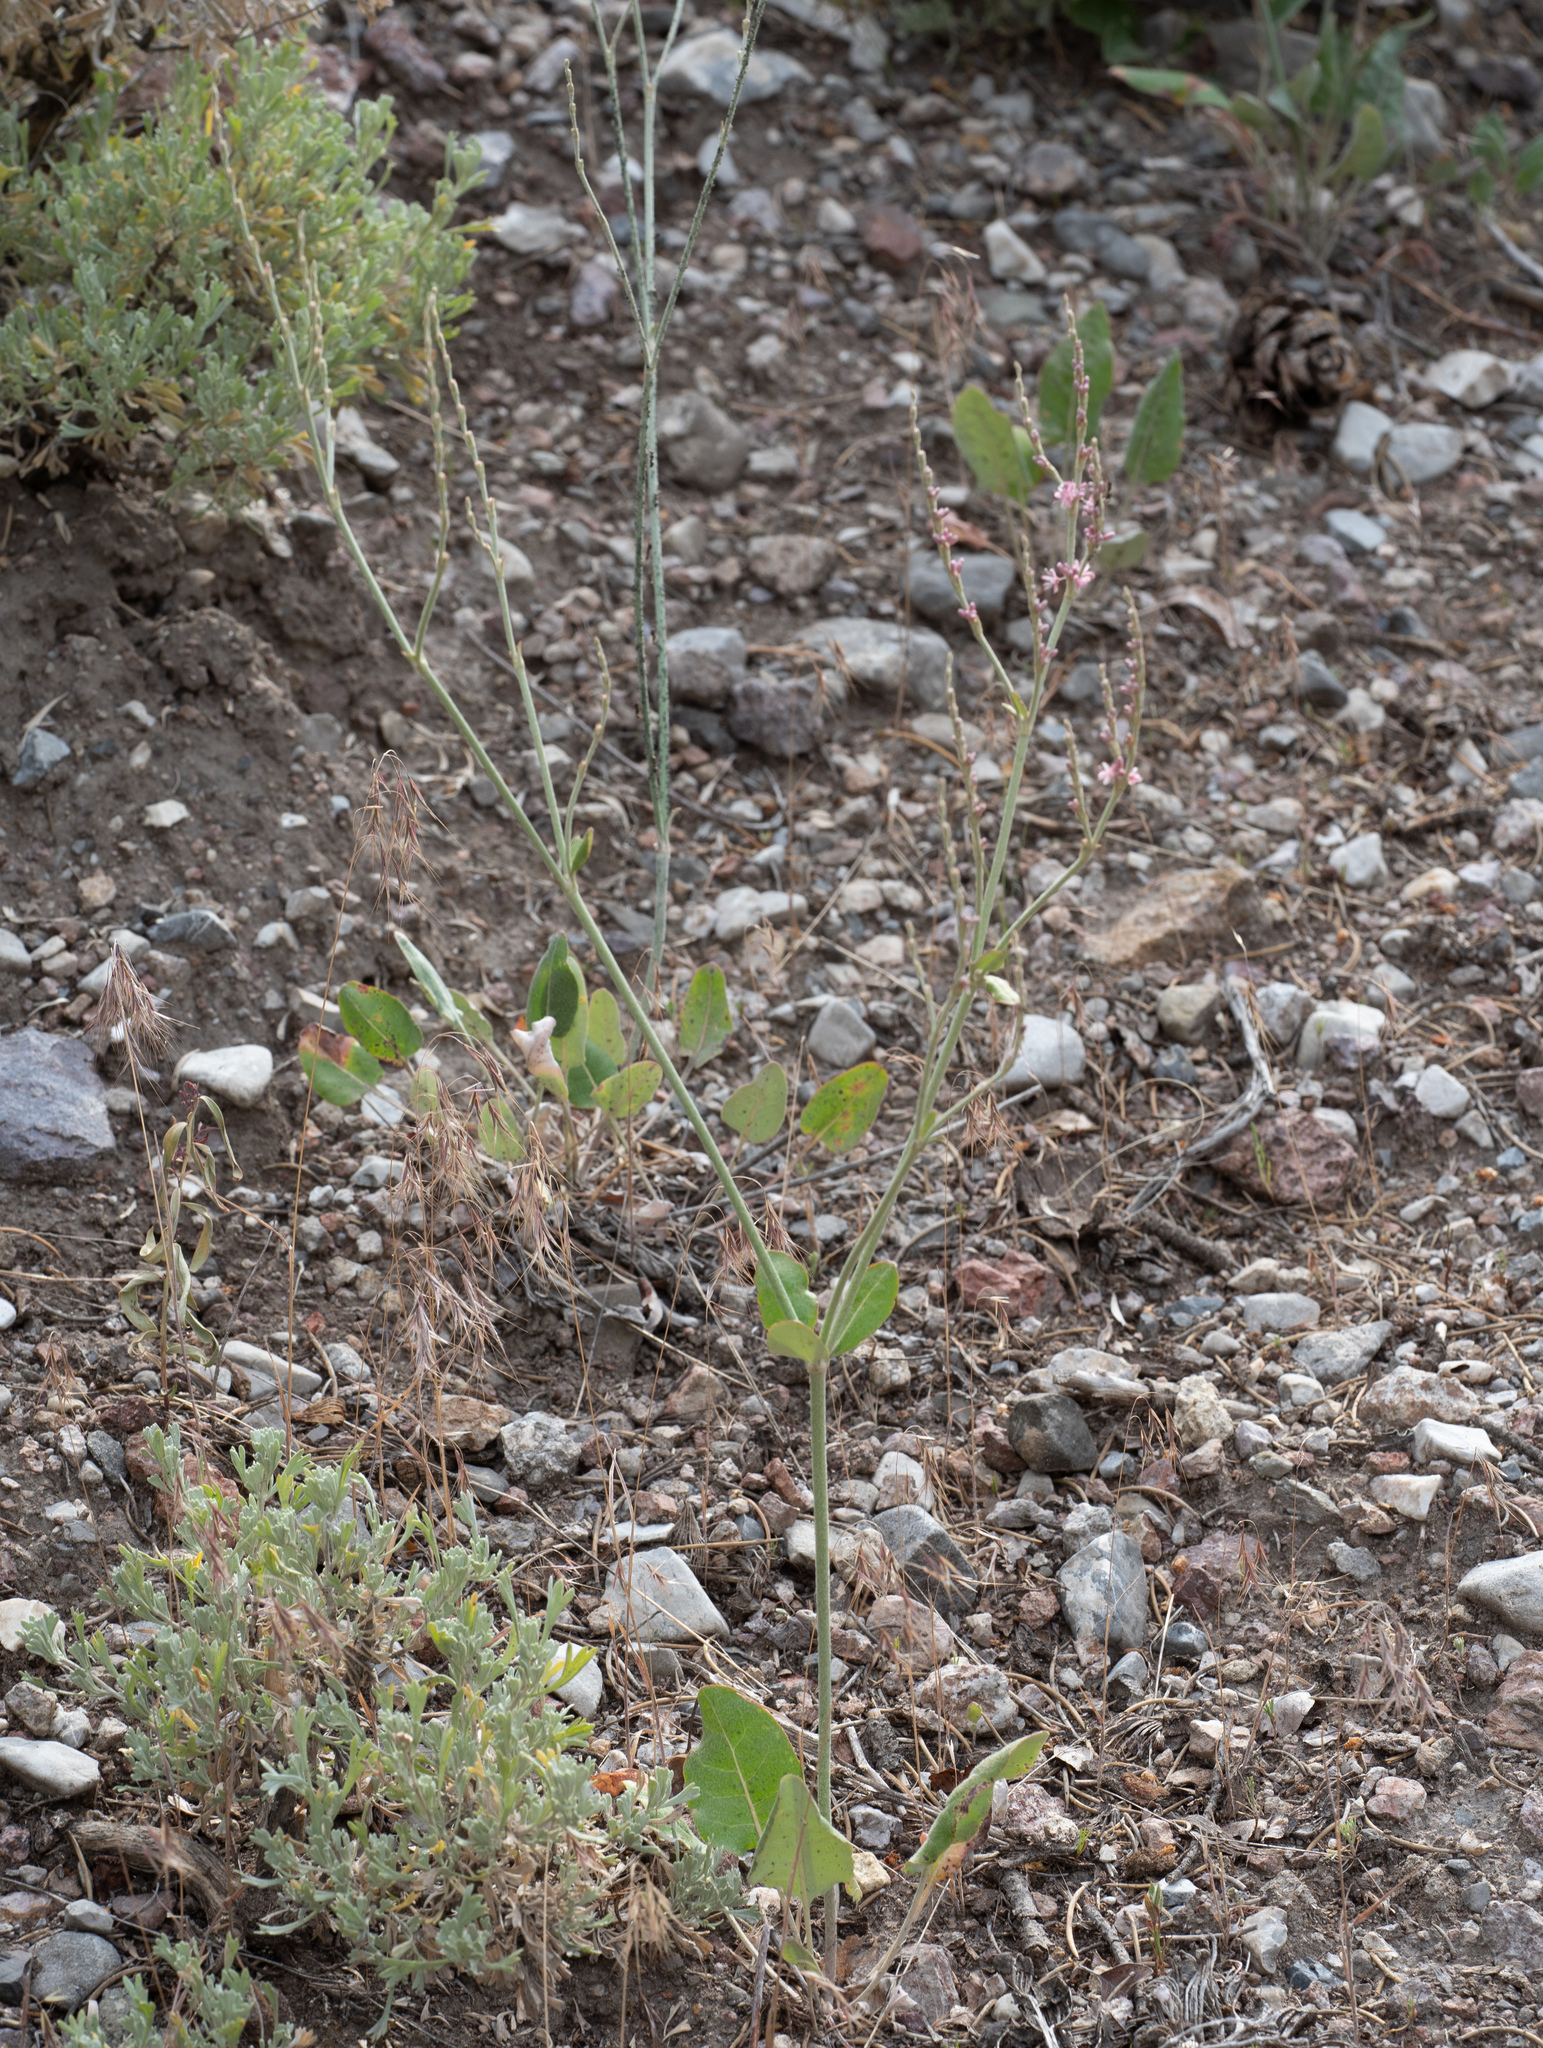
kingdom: Plantae
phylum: Tracheophyta
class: Magnoliopsida
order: Caryophyllales
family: Polygonaceae
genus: Eriogonum
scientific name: Eriogonum racemosum
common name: Redroot wild buckwheat
